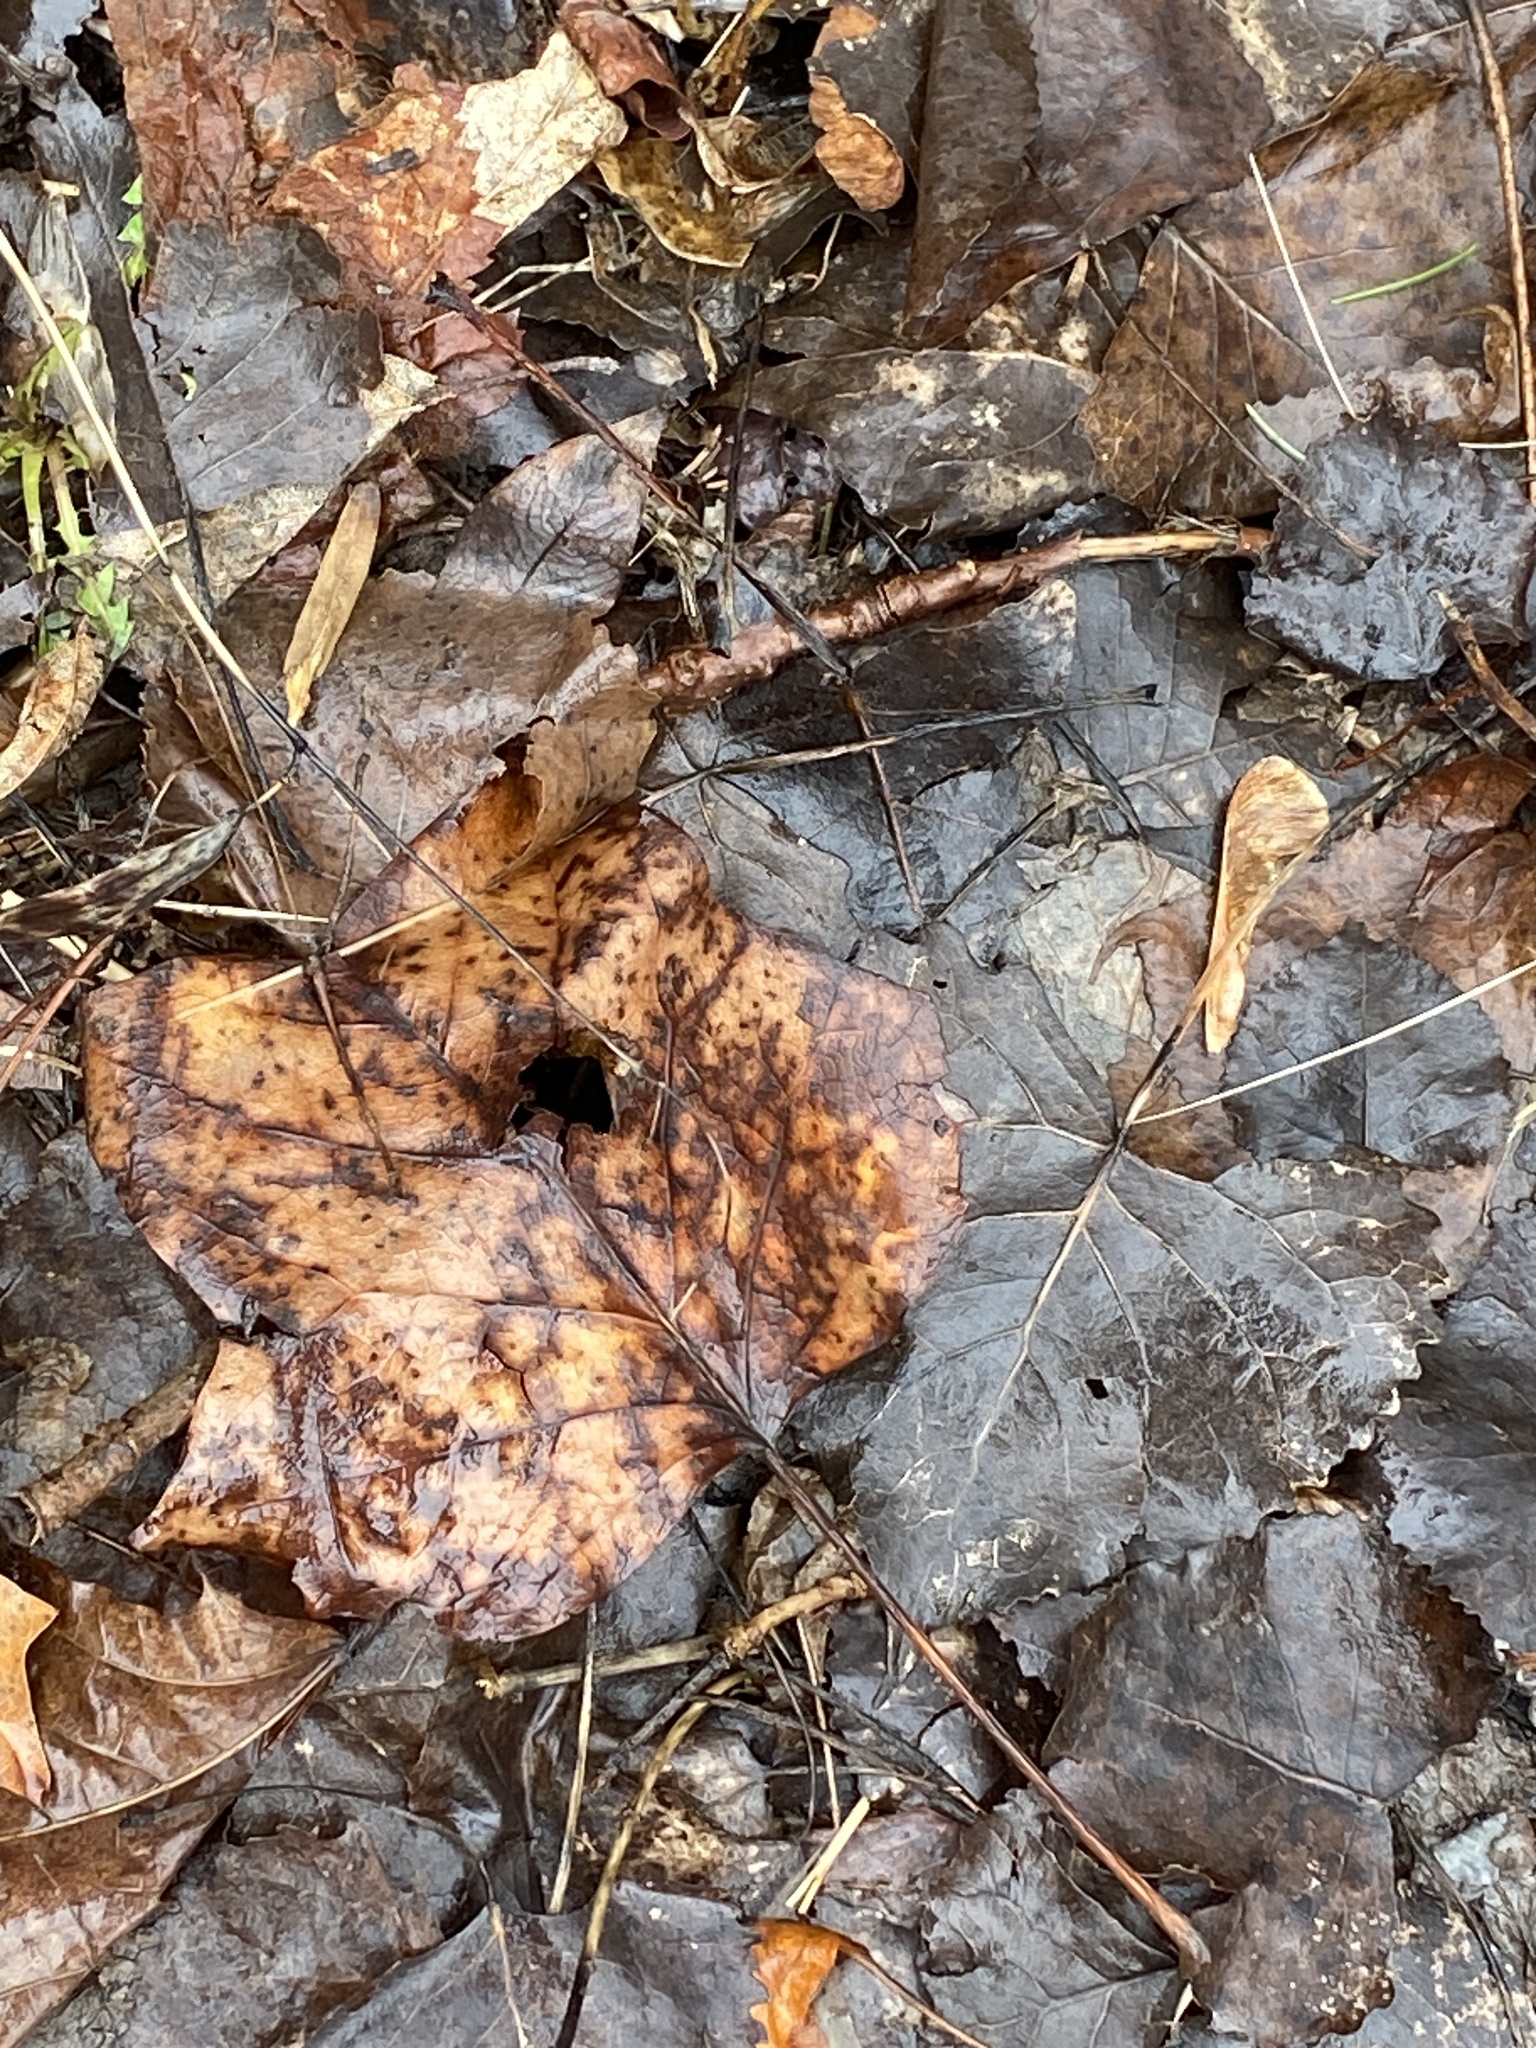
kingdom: Plantae
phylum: Tracheophyta
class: Magnoliopsida
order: Magnoliales
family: Magnoliaceae
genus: Liriodendron
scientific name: Liriodendron tulipifera
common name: Tulip tree
